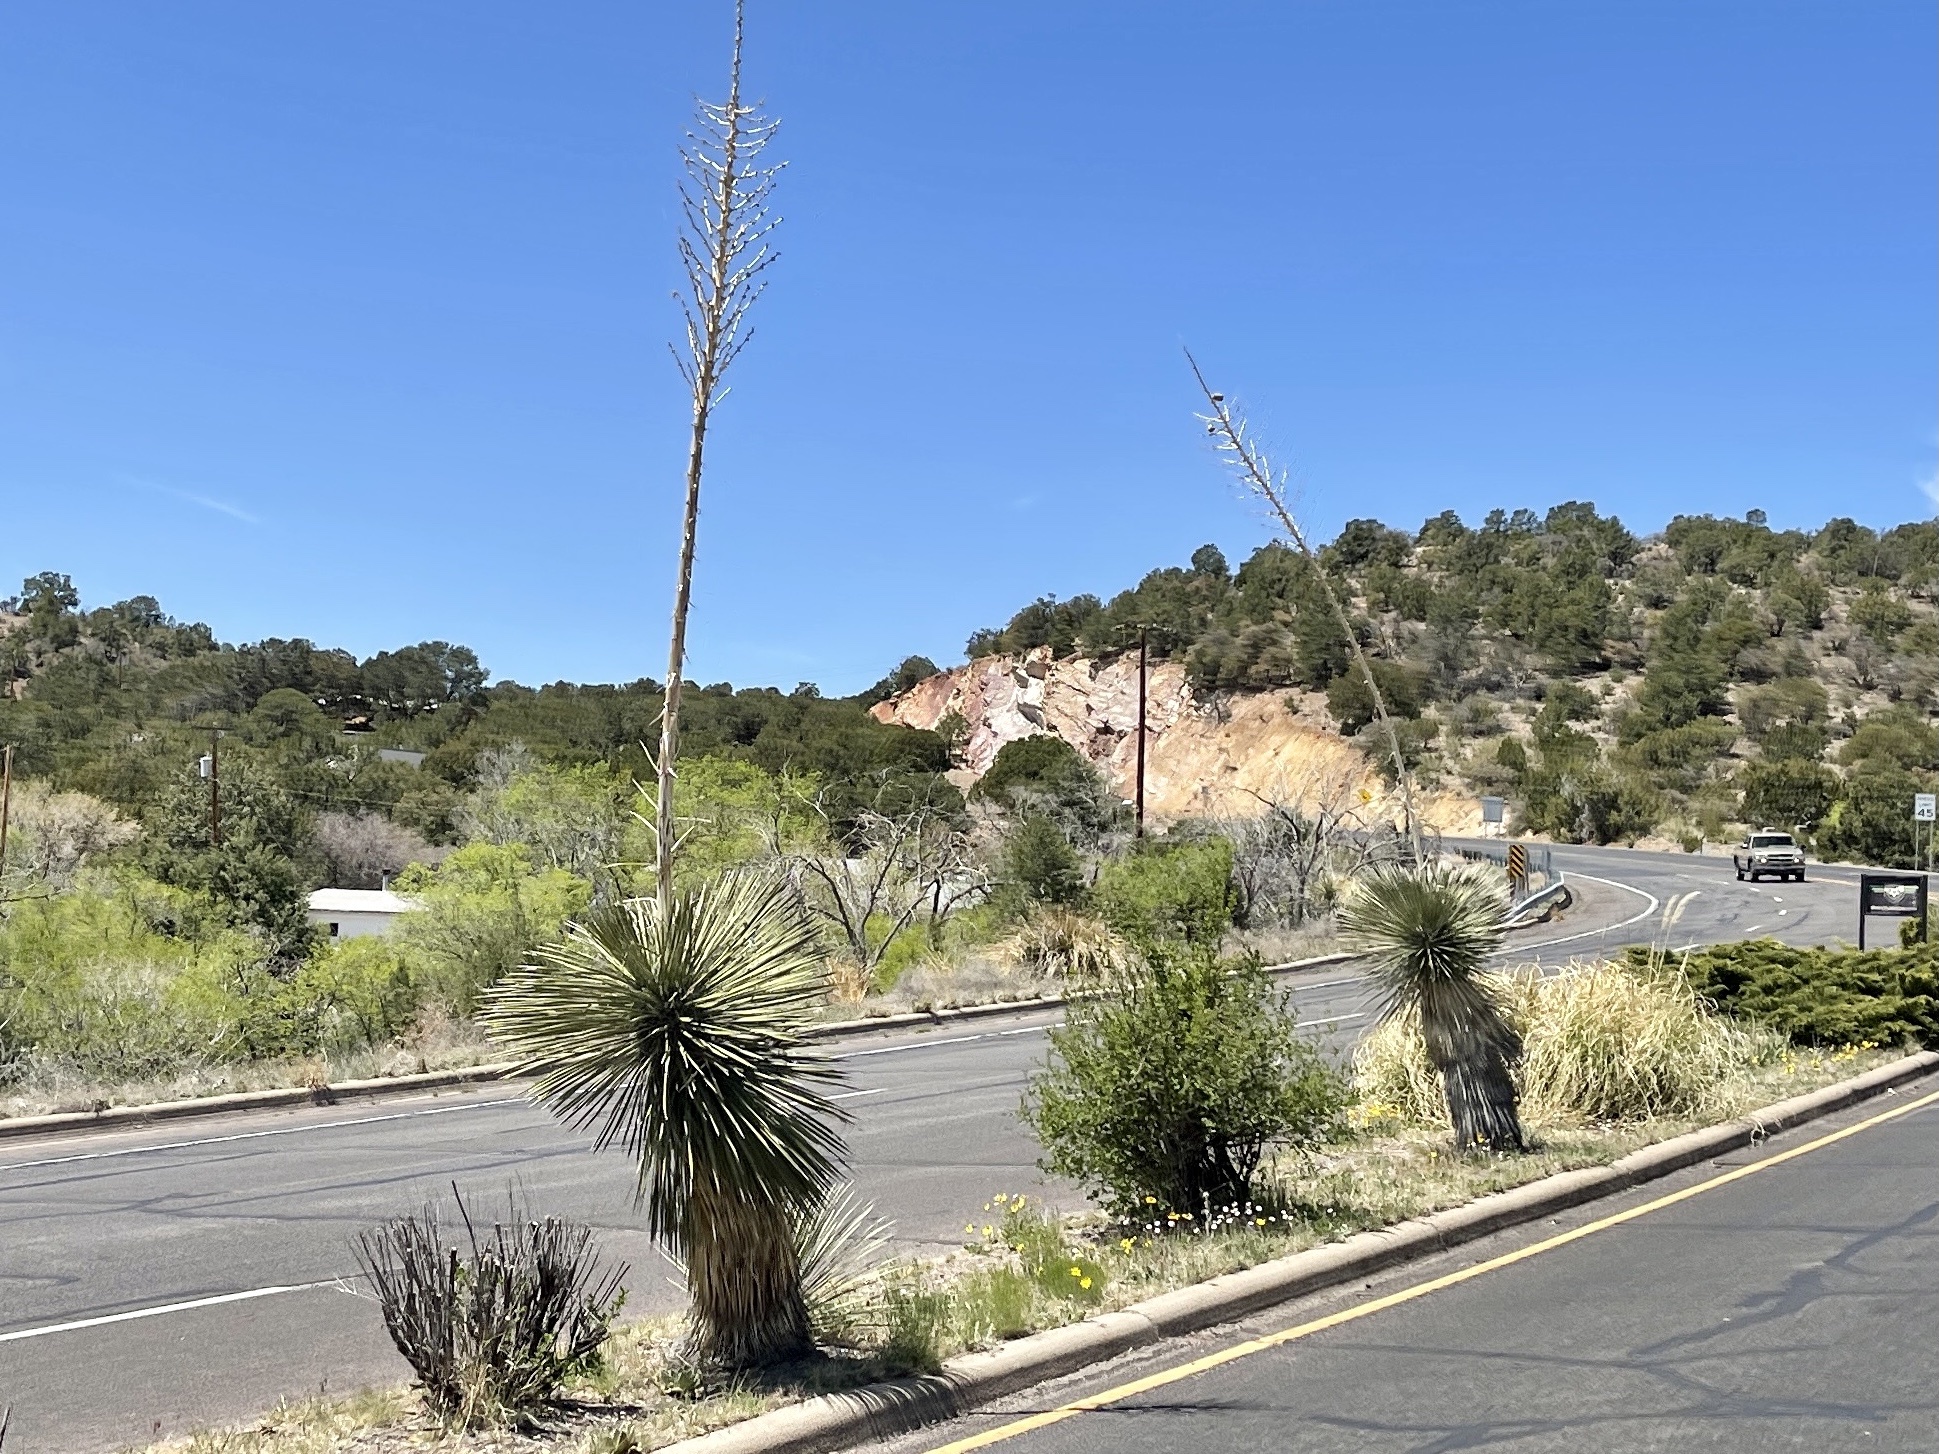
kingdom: Plantae
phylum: Tracheophyta
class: Liliopsida
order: Asparagales
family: Asparagaceae
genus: Yucca
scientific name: Yucca elata
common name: Palmella
